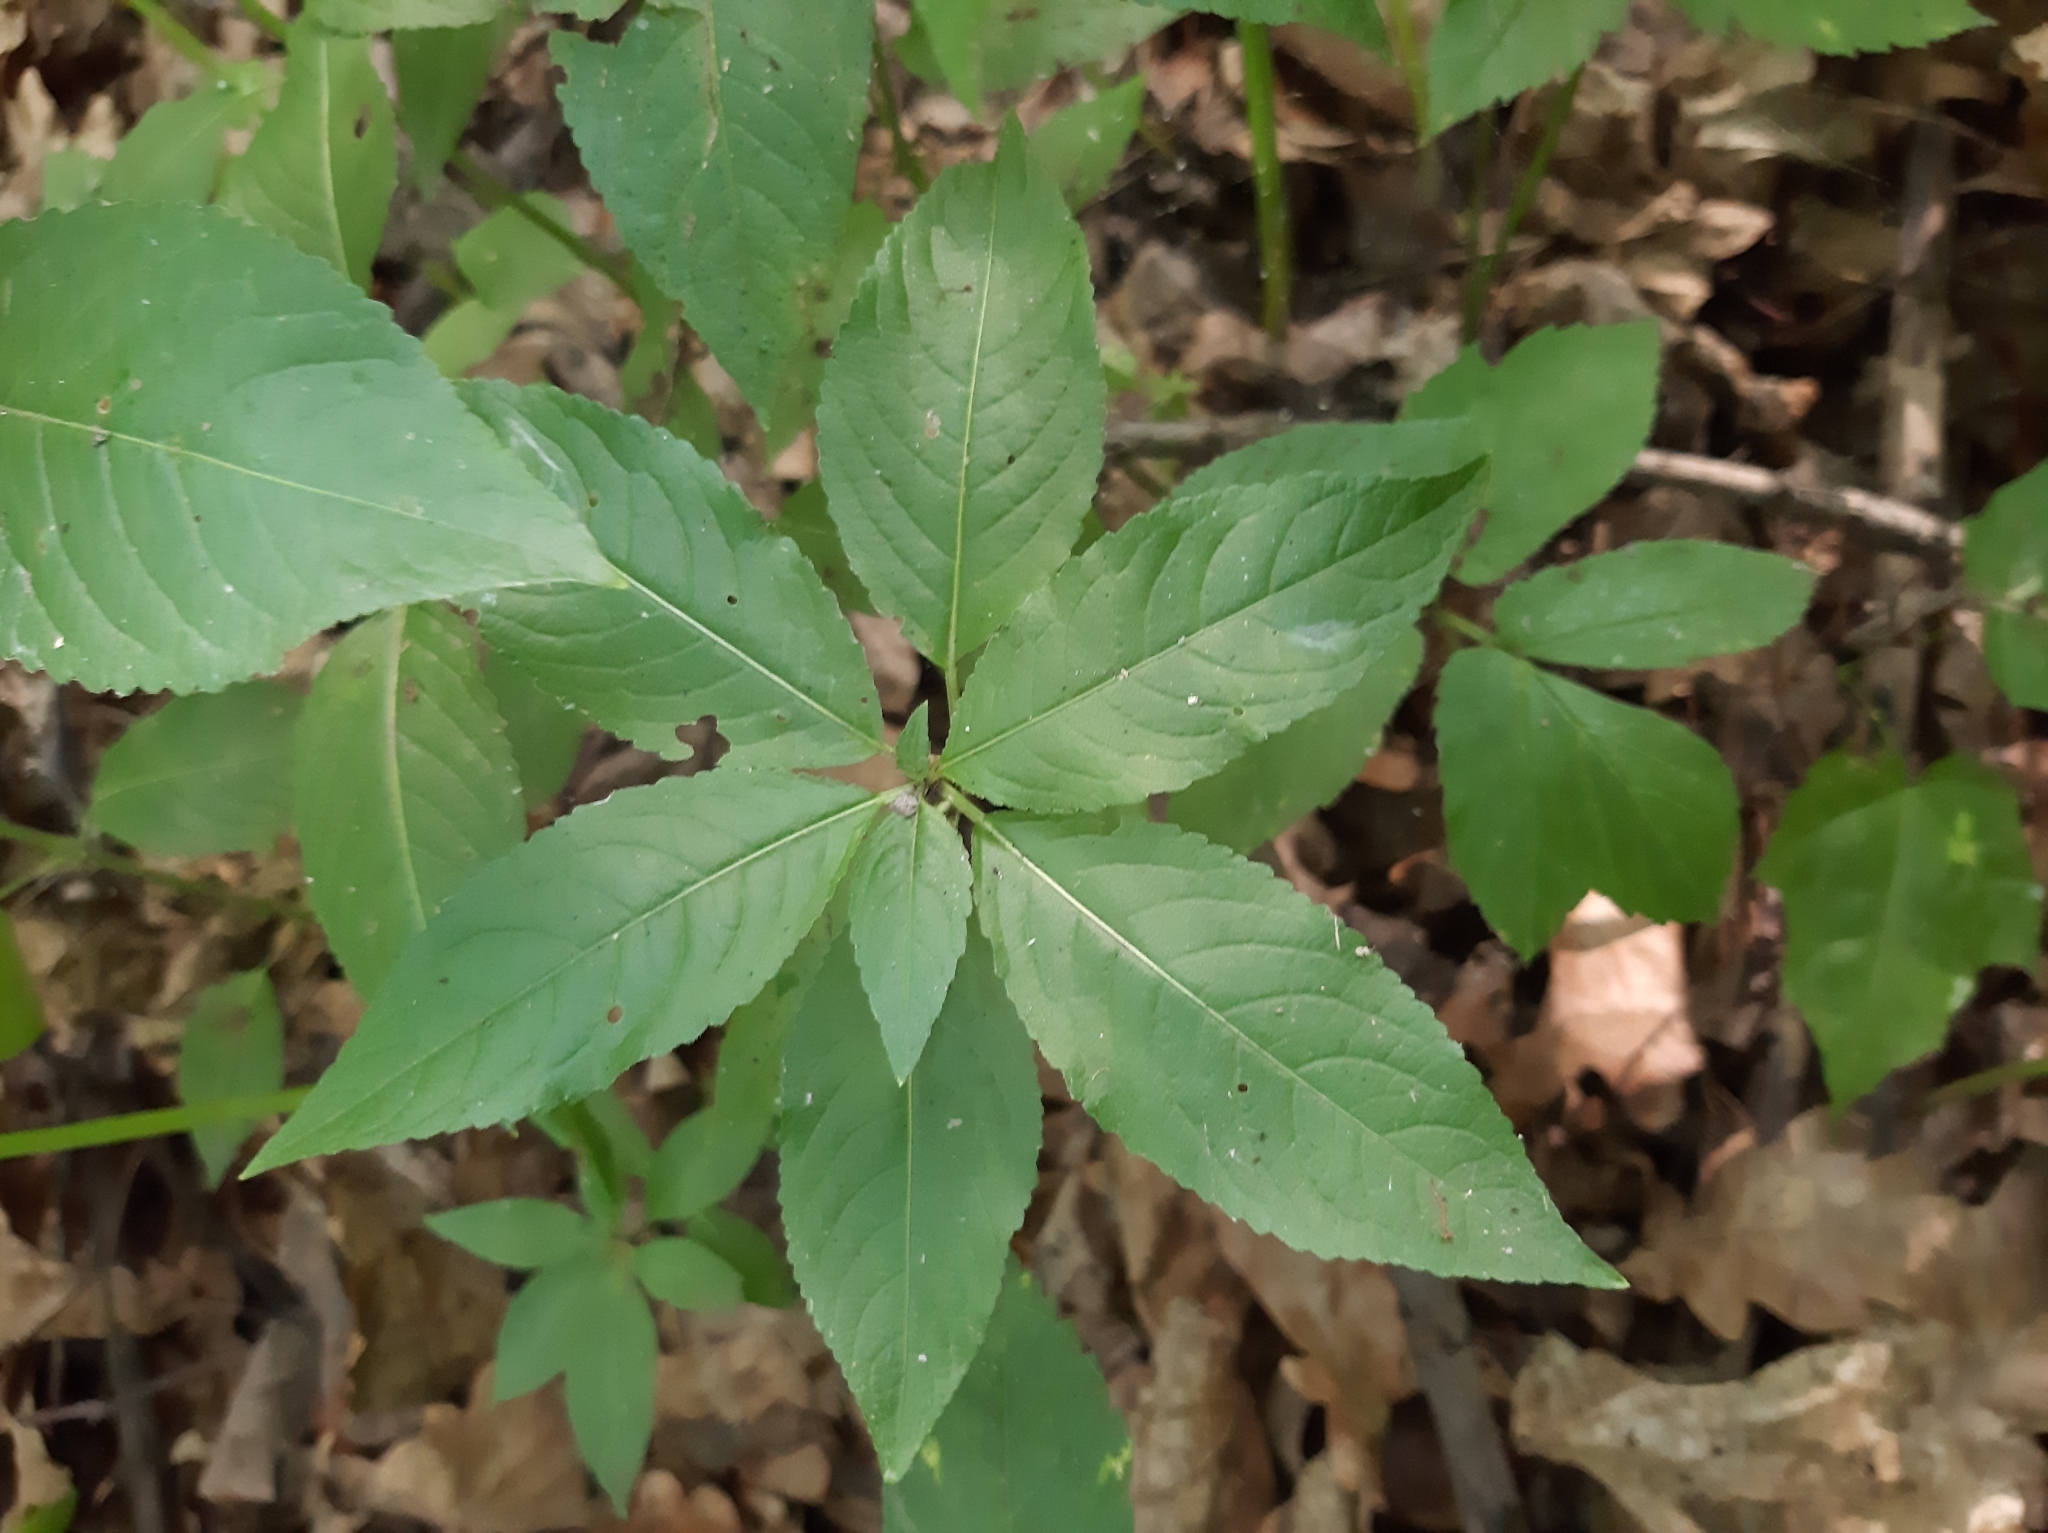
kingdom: Plantae
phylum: Tracheophyta
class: Magnoliopsida
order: Malpighiales
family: Euphorbiaceae
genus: Mercurialis
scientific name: Mercurialis perennis
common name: Dog mercury
